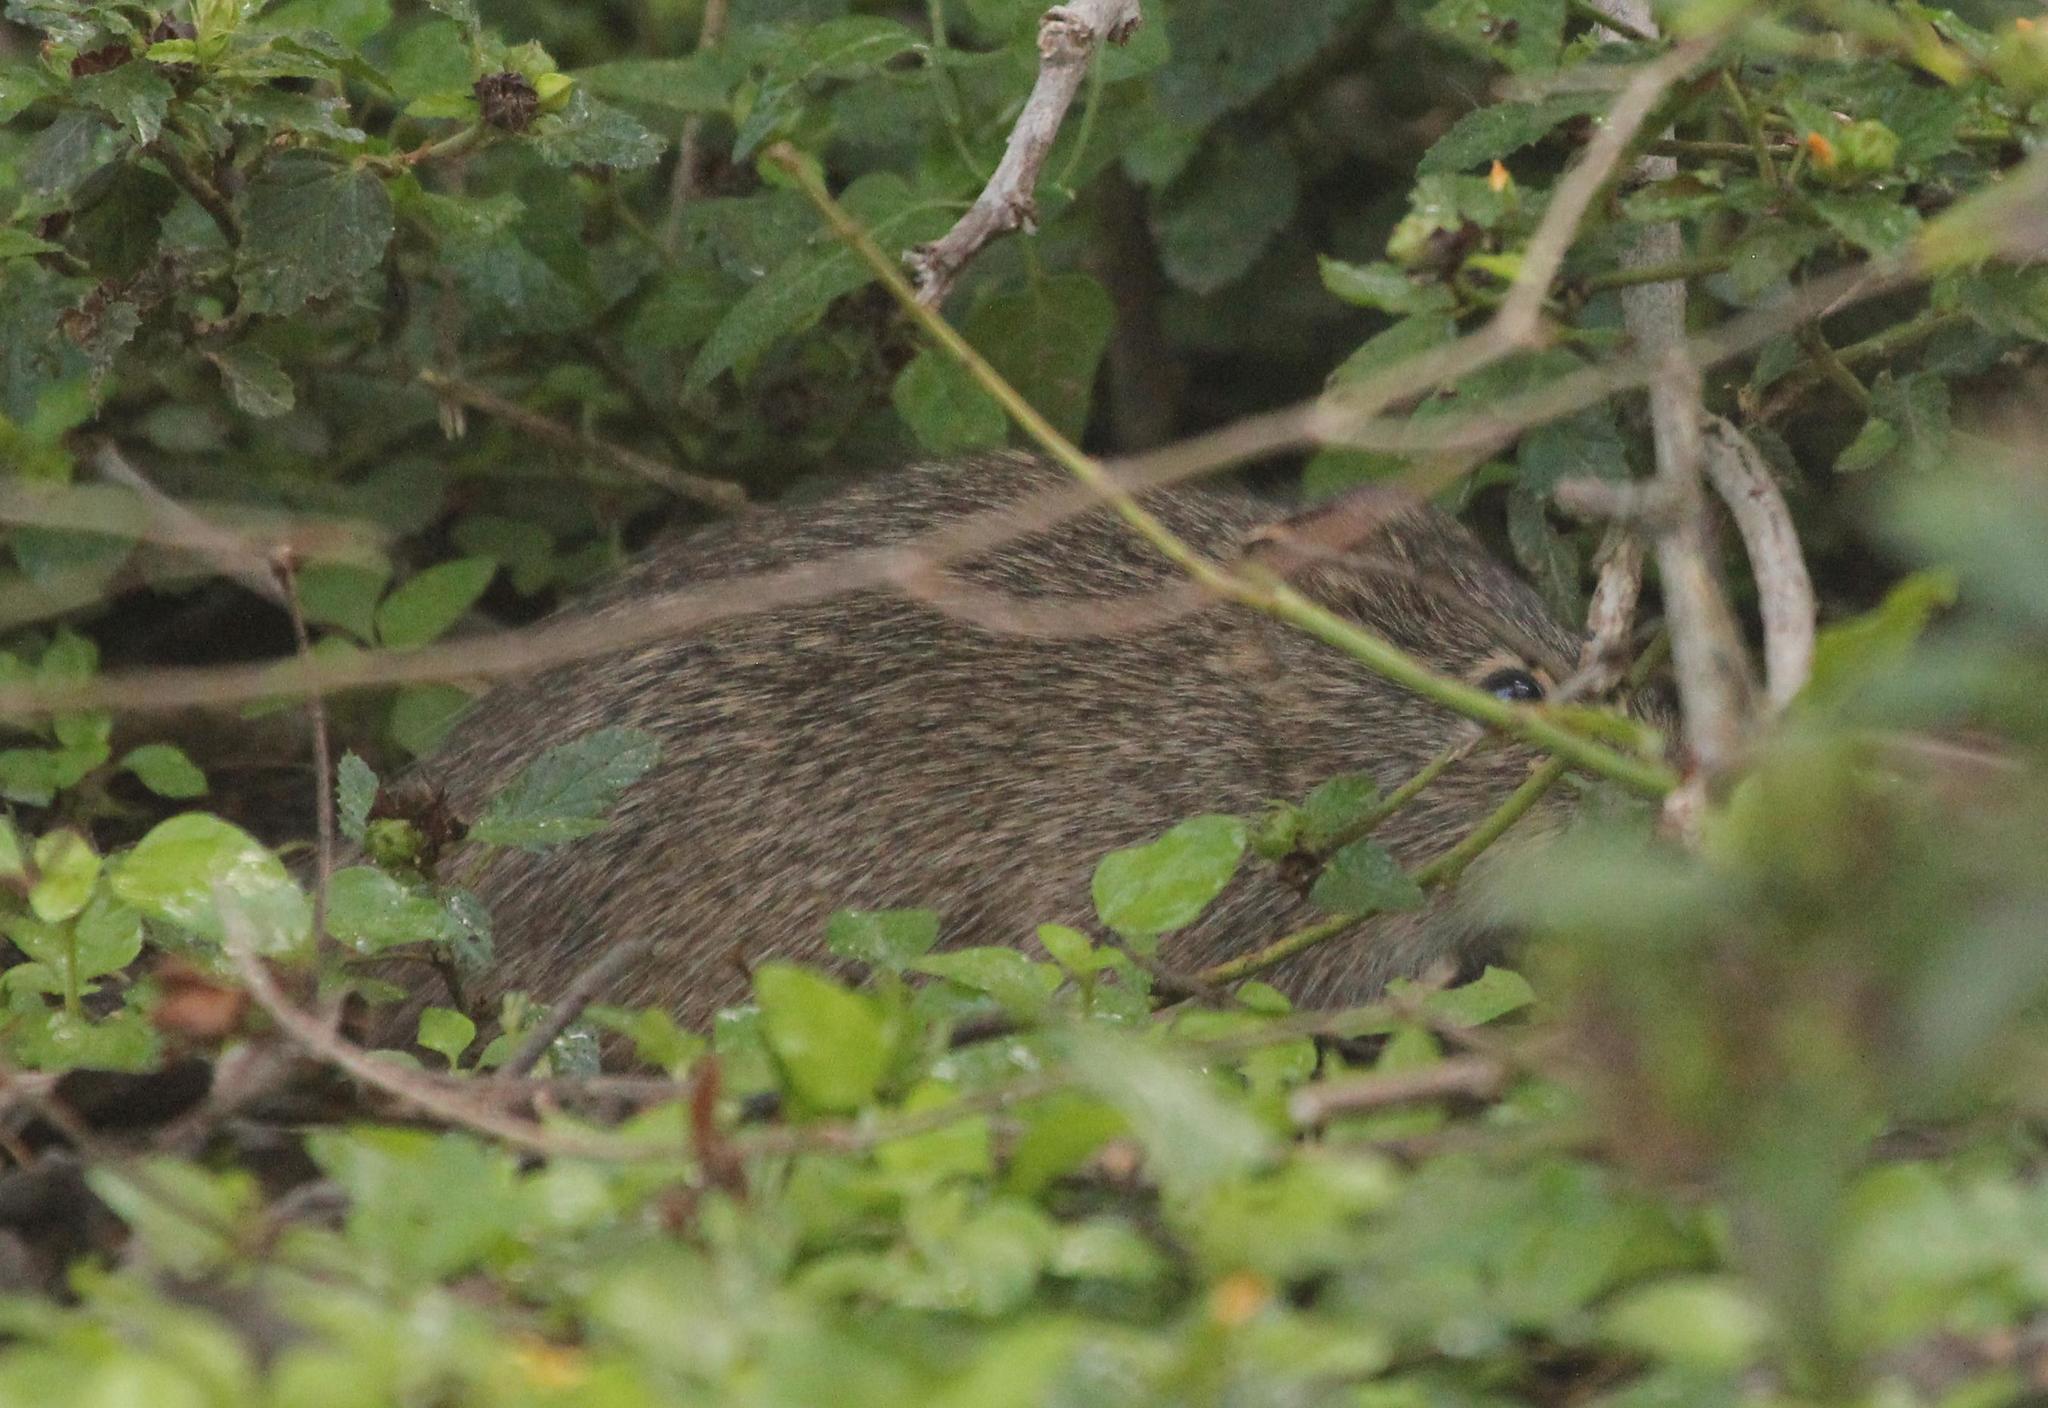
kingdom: Animalia
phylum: Chordata
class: Mammalia
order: Rodentia
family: Cricetidae
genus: Sigmodon
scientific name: Sigmodon hispidus
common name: Hispid cotton rat
